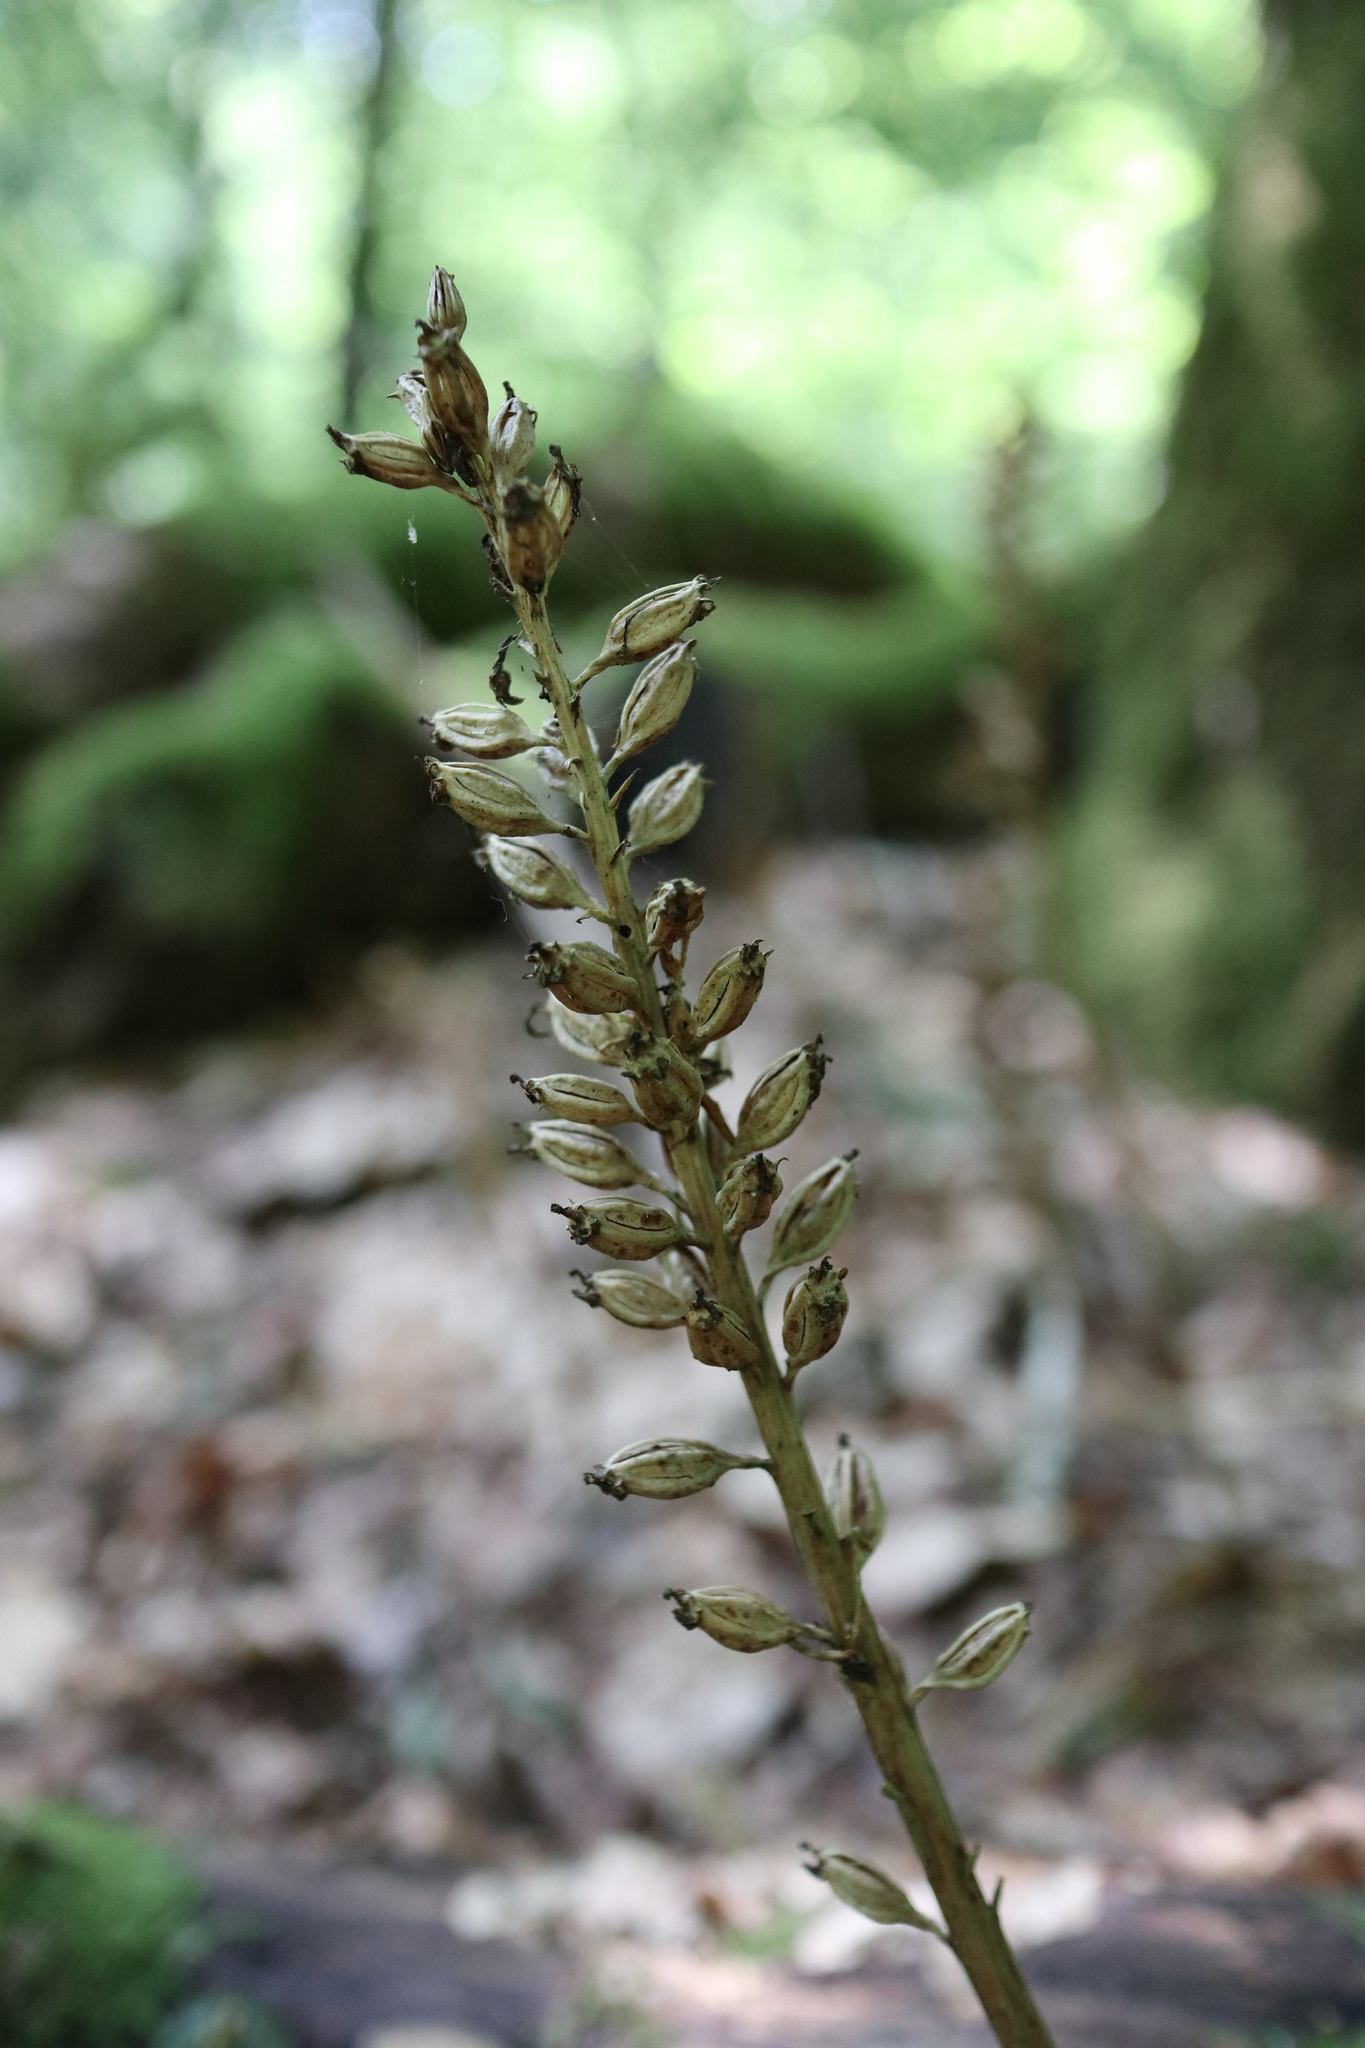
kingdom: Plantae
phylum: Tracheophyta
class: Liliopsida
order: Asparagales
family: Orchidaceae
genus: Neottia
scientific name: Neottia nidus-avis
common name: Bird's-nest orchid
